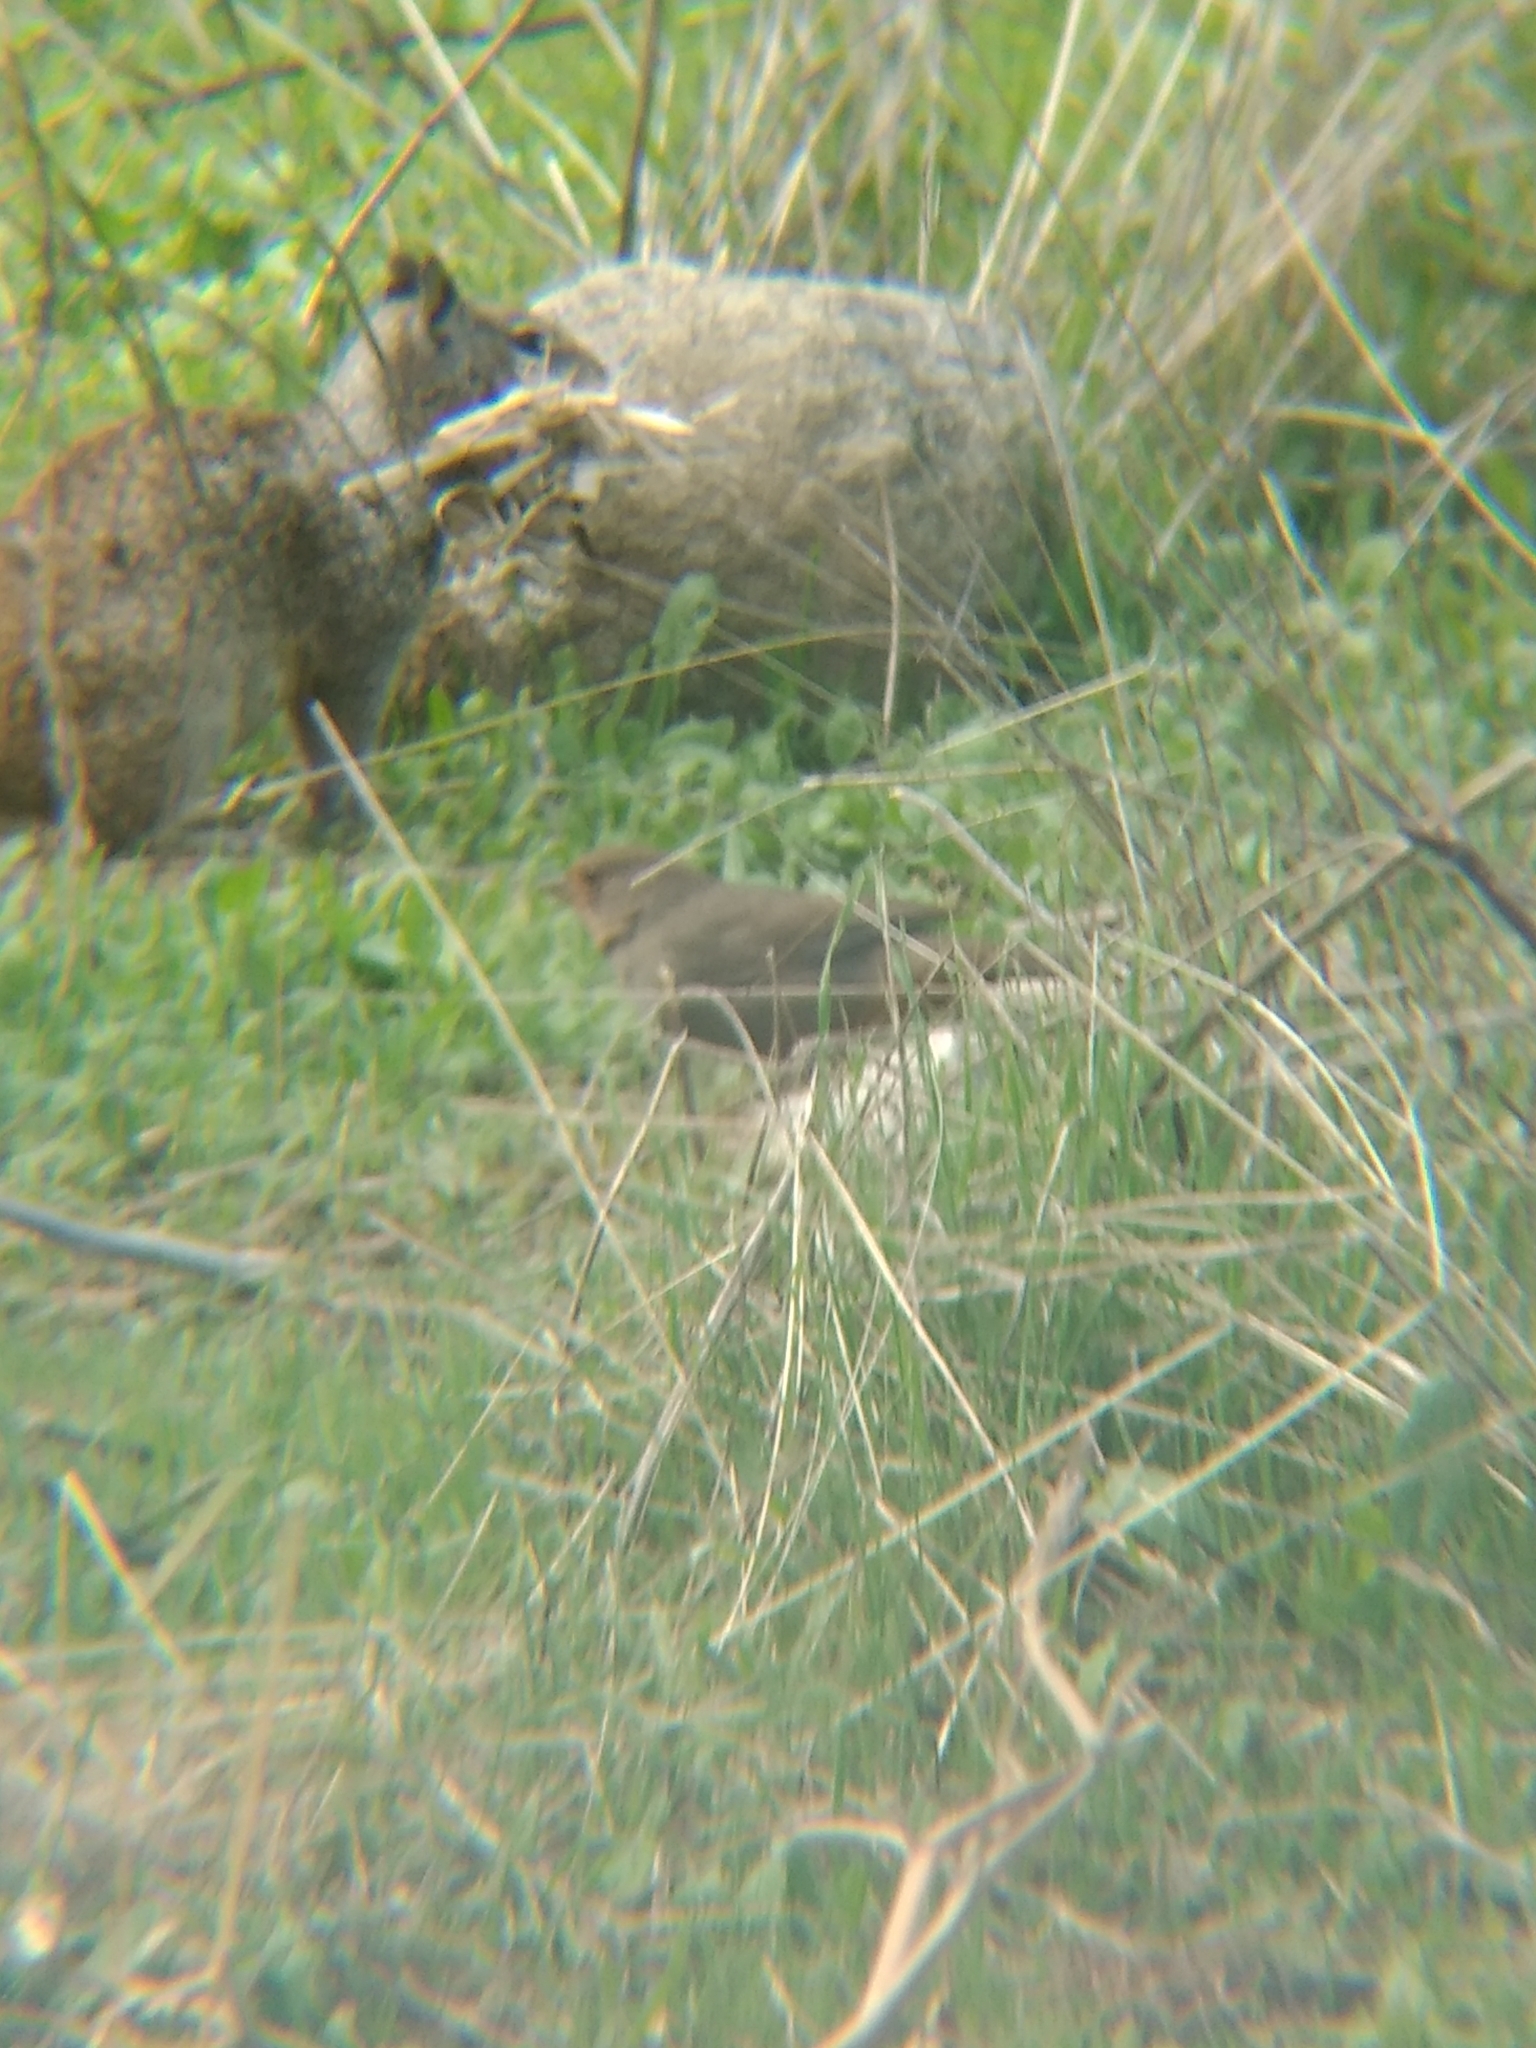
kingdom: Animalia
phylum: Chordata
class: Aves
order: Passeriformes
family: Passerellidae
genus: Melozone
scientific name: Melozone crissalis
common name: California towhee
